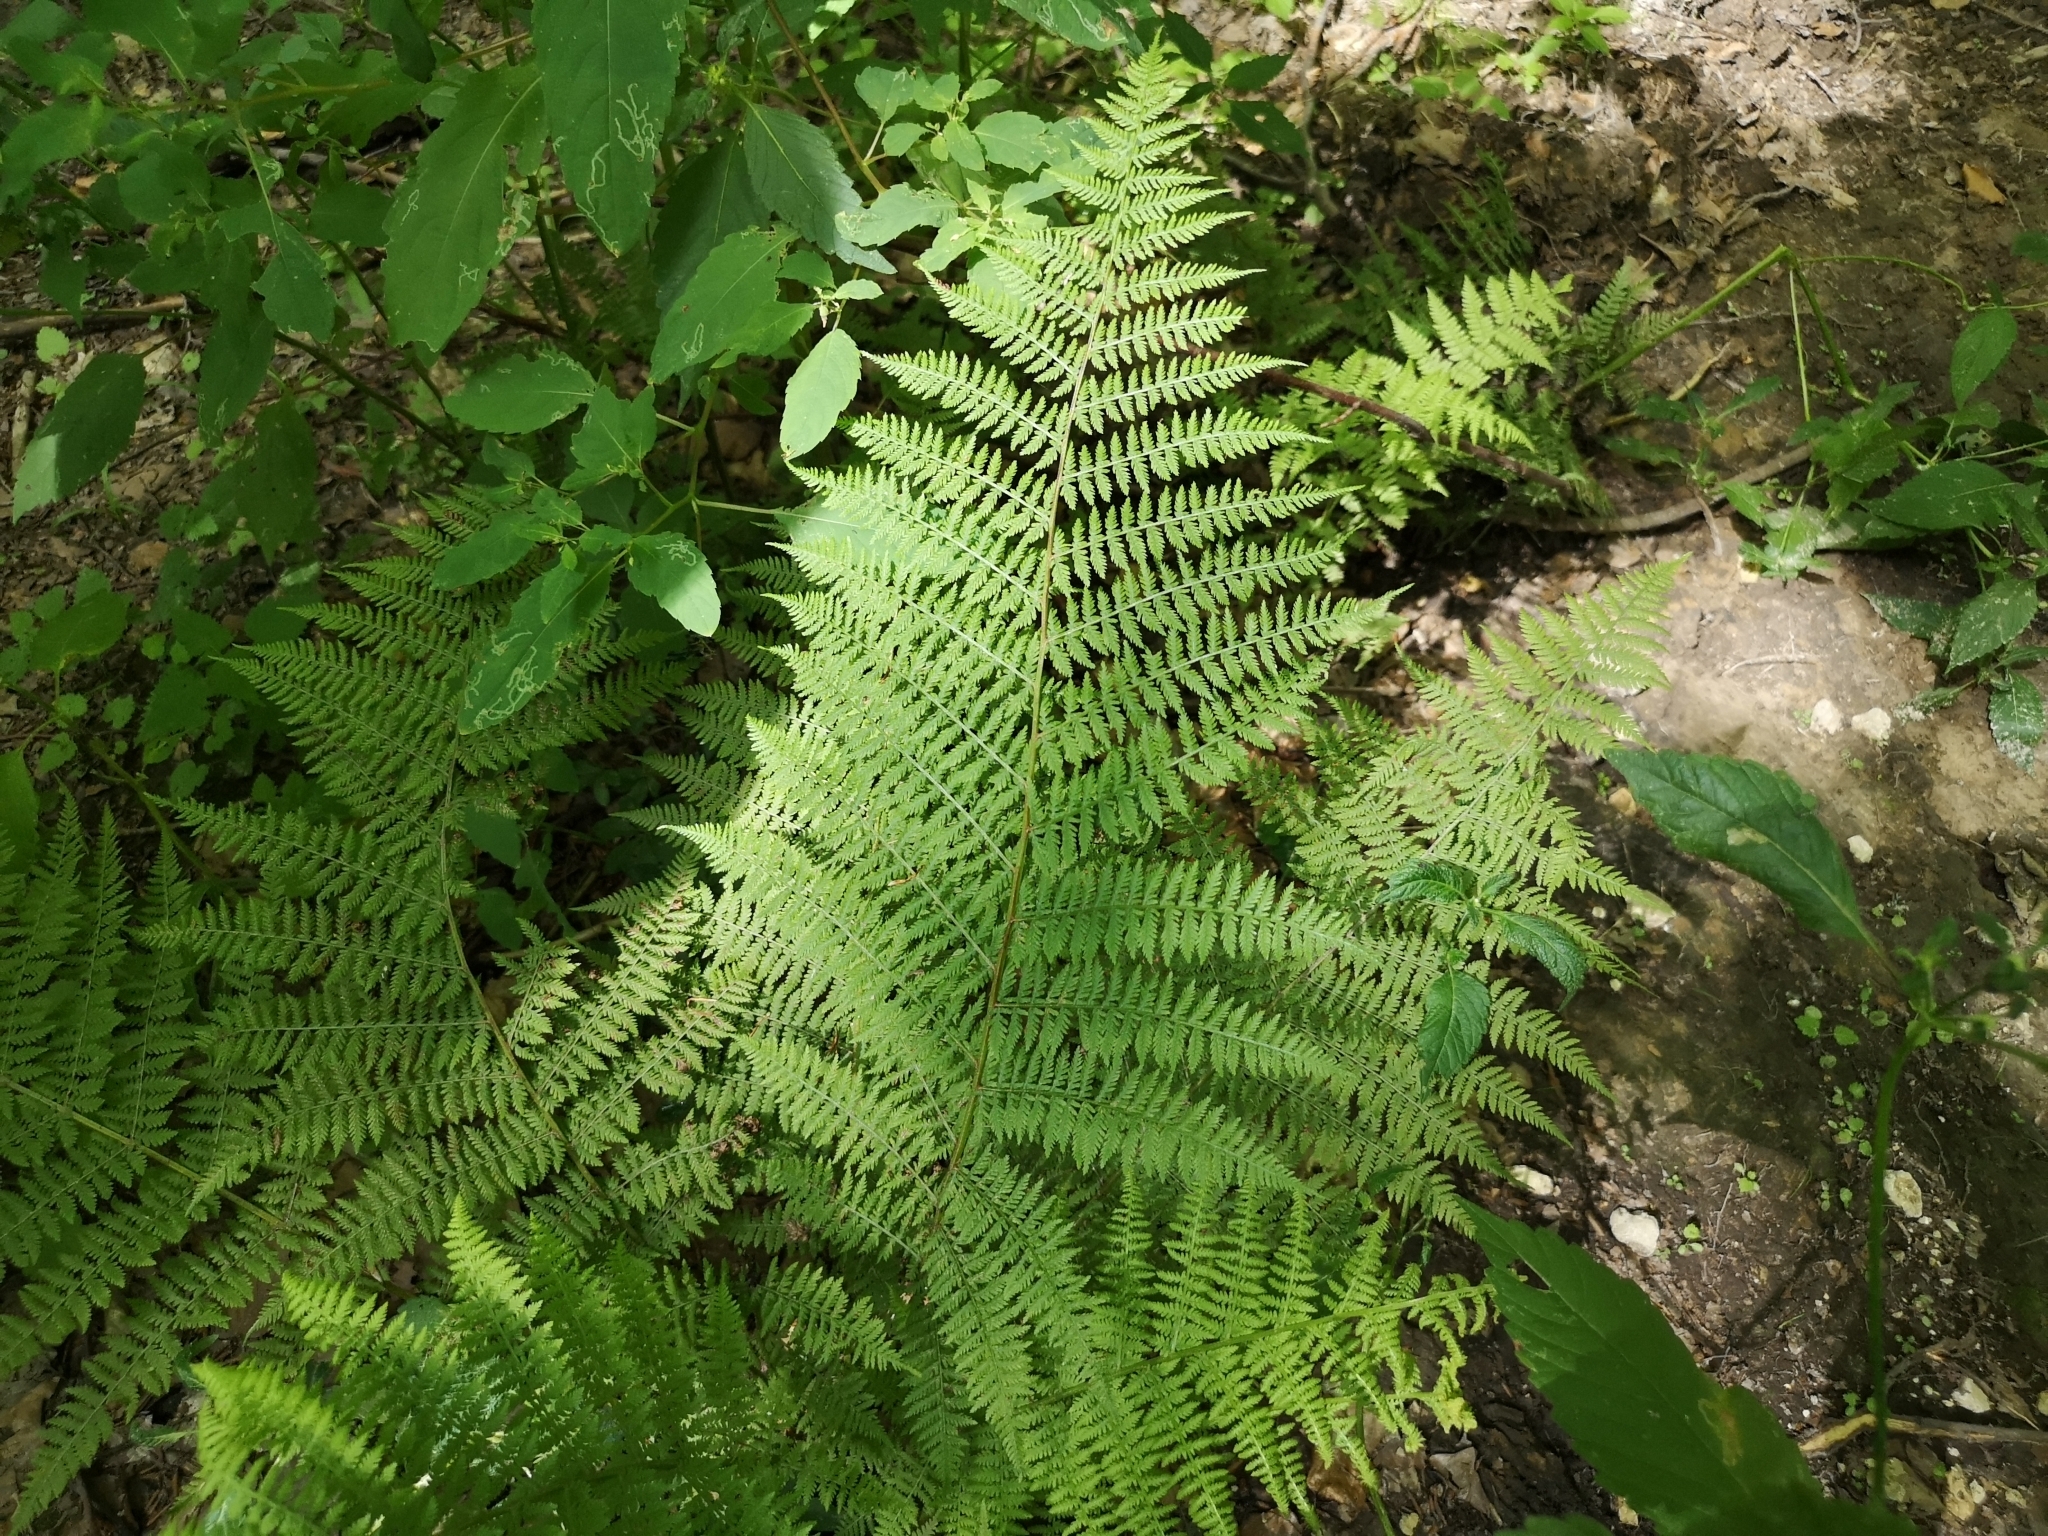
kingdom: Plantae
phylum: Tracheophyta
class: Polypodiopsida
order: Polypodiales
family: Athyriaceae
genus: Athyrium
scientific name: Athyrium filix-femina
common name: Lady fern
